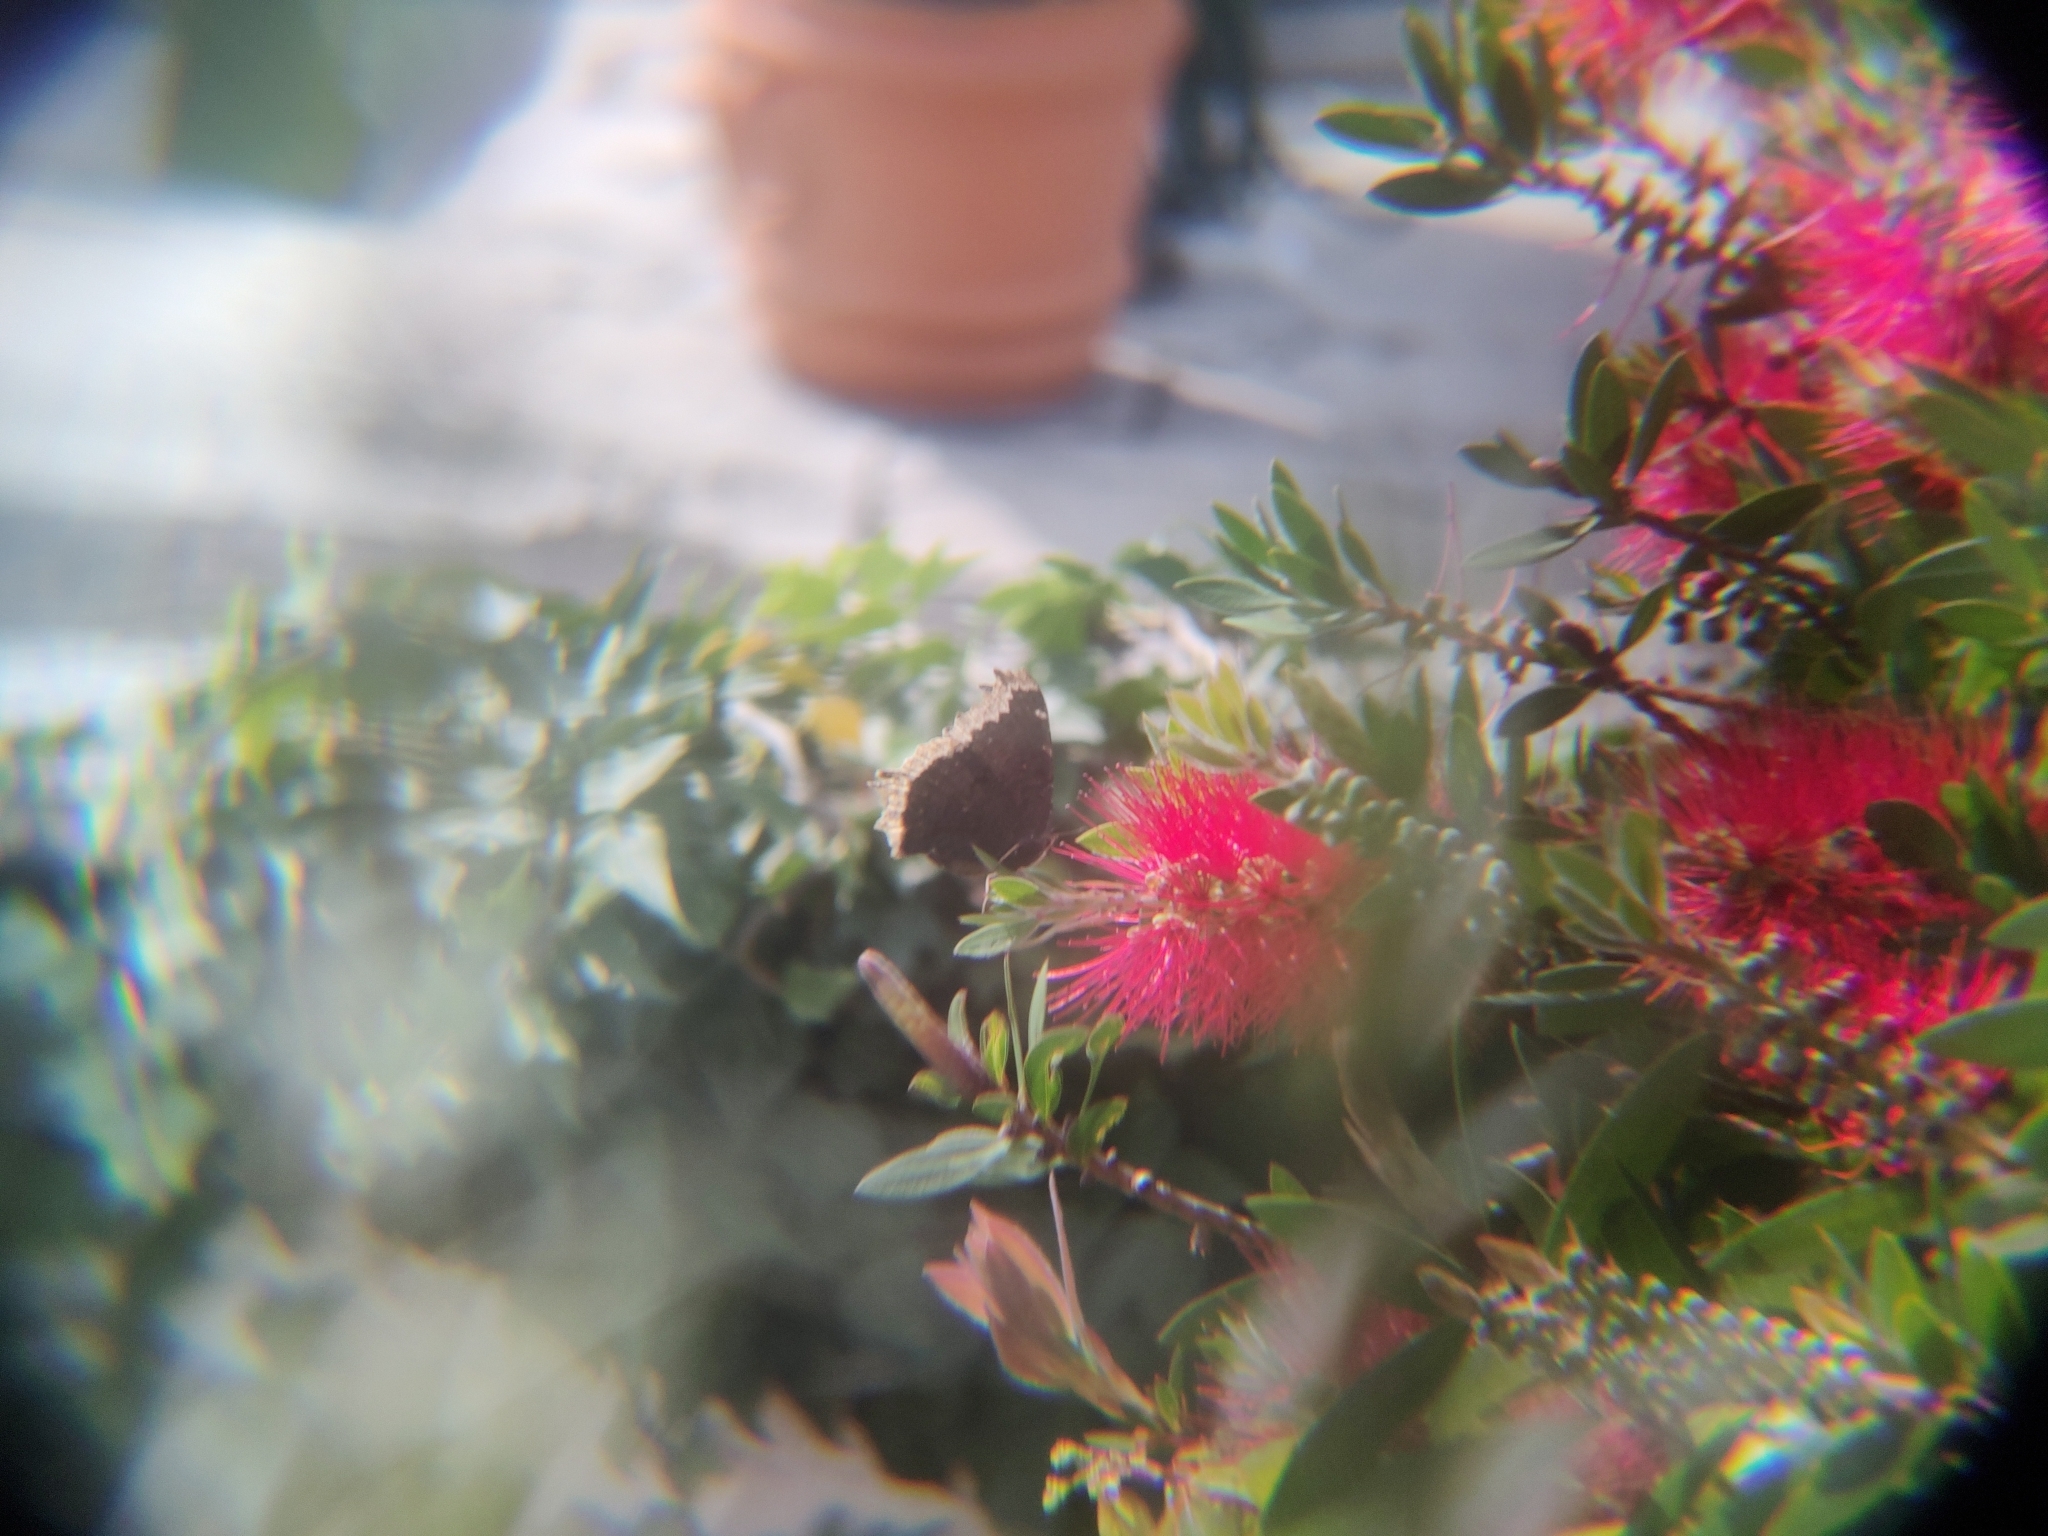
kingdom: Animalia
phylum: Arthropoda
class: Insecta
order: Lepidoptera
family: Nymphalidae
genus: Nymphalis
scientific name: Nymphalis antiopa
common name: Camberwell beauty
